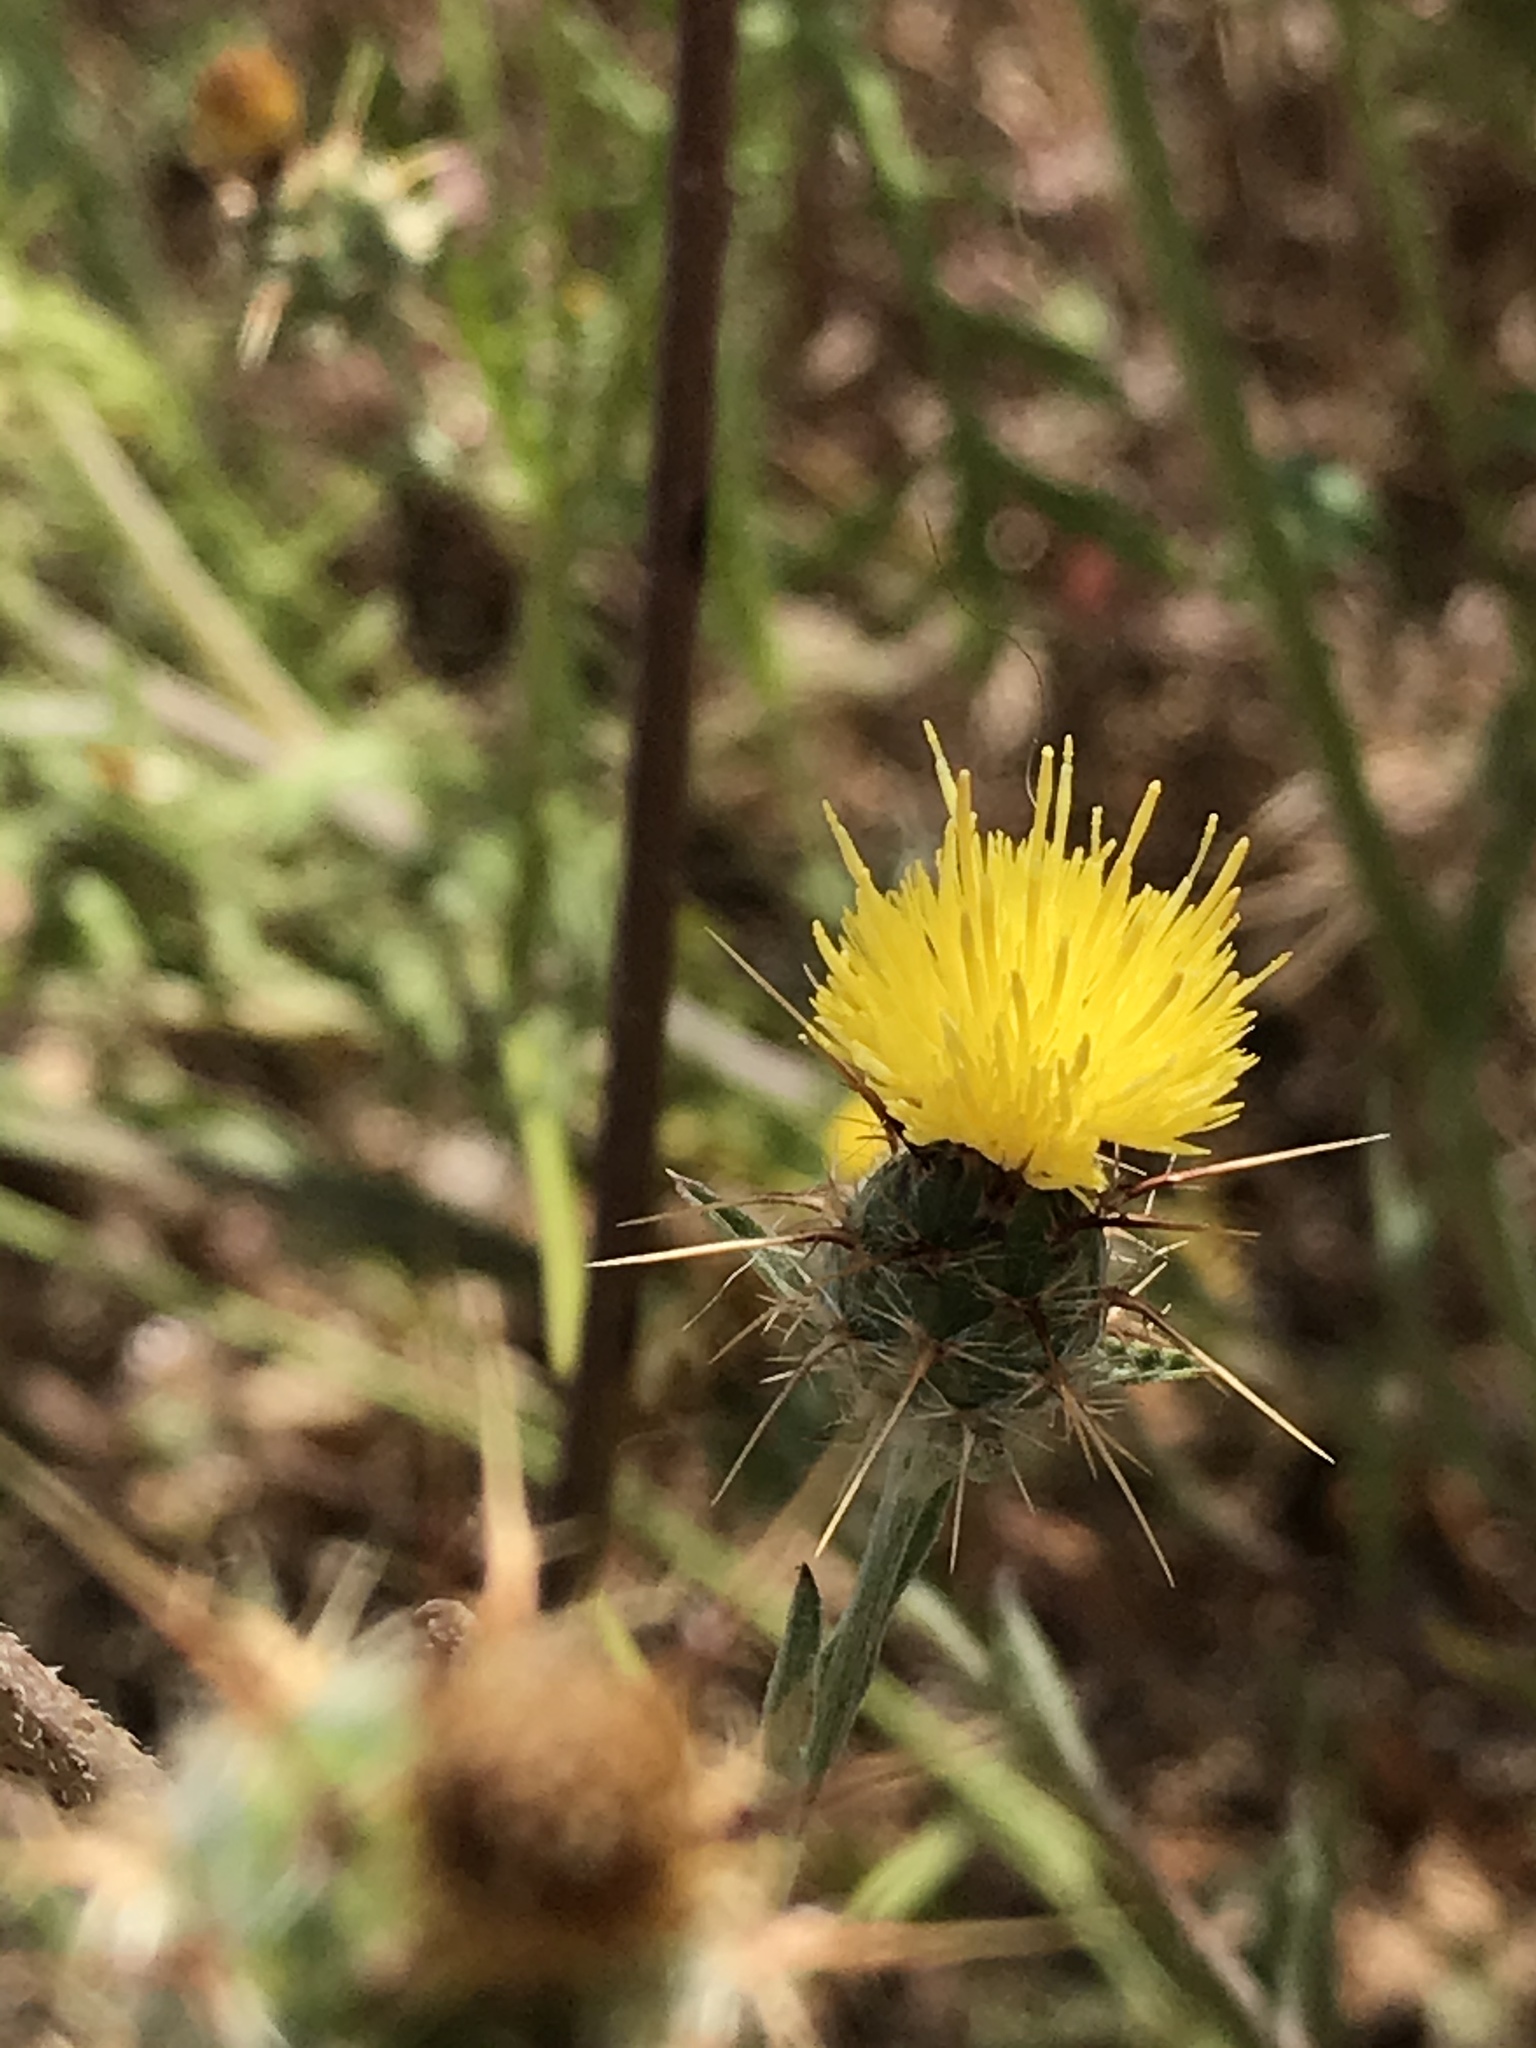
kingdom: Plantae
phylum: Tracheophyta
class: Magnoliopsida
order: Asterales
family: Asteraceae
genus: Centaurea
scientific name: Centaurea melitensis
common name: Maltese star-thistle
